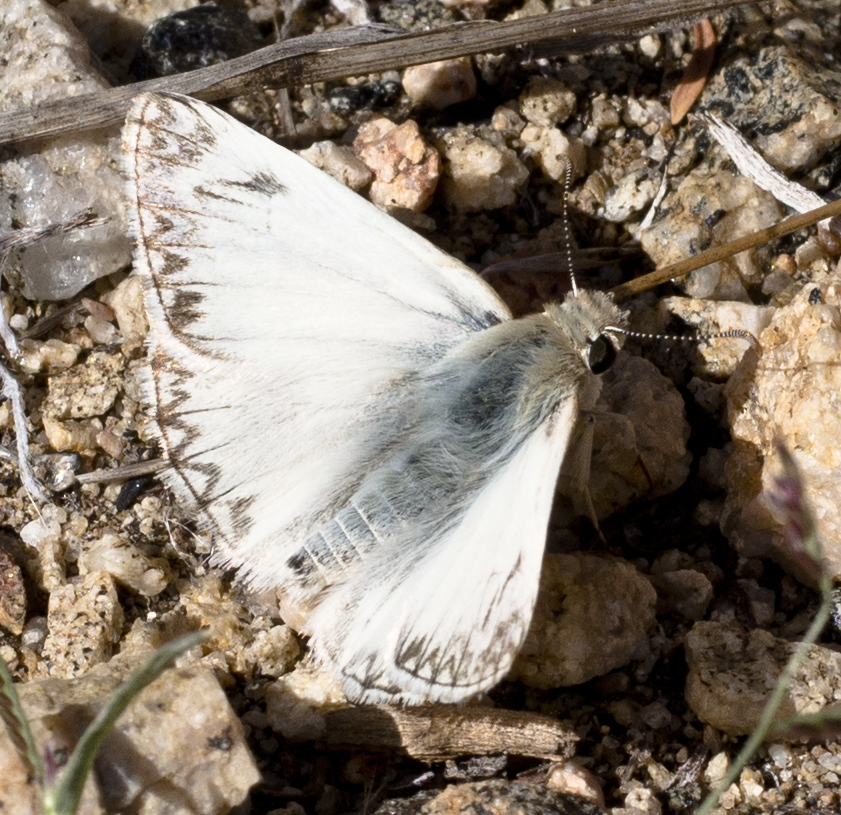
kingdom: Animalia
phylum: Arthropoda
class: Insecta
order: Lepidoptera
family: Hesperiidae
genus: Heliopetes
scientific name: Heliopetes ericetorum
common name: Northern white-skipper
